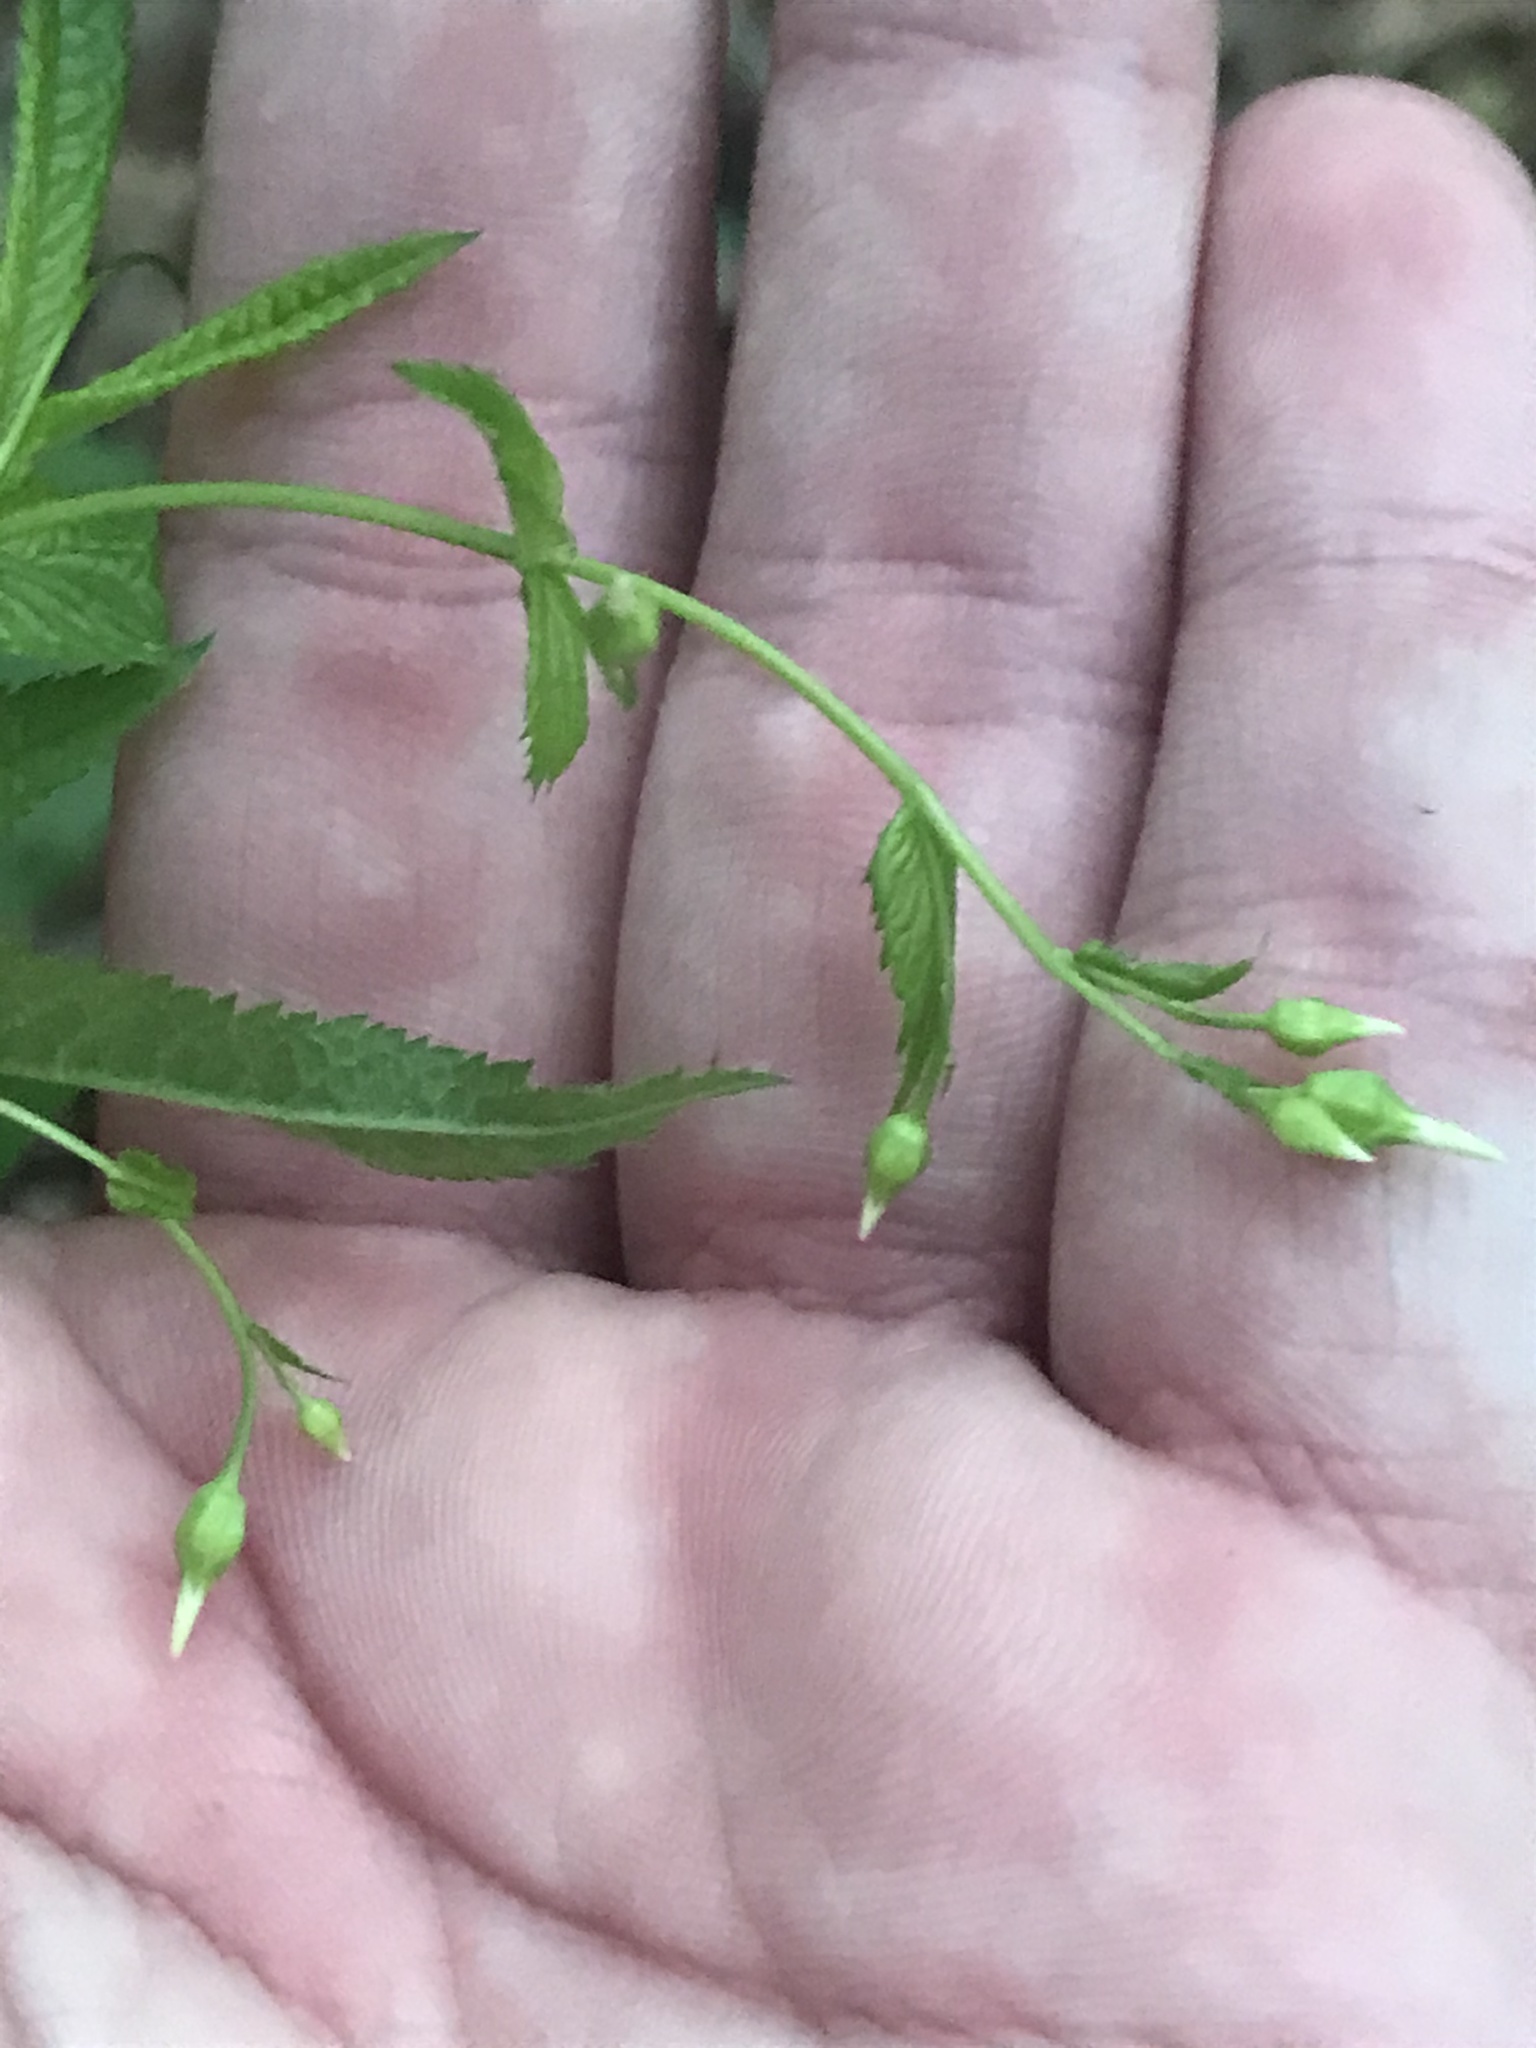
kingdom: Plantae
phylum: Tracheophyta
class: Magnoliopsida
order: Rosales
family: Rosaceae
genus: Gillenia
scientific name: Gillenia stipulata
